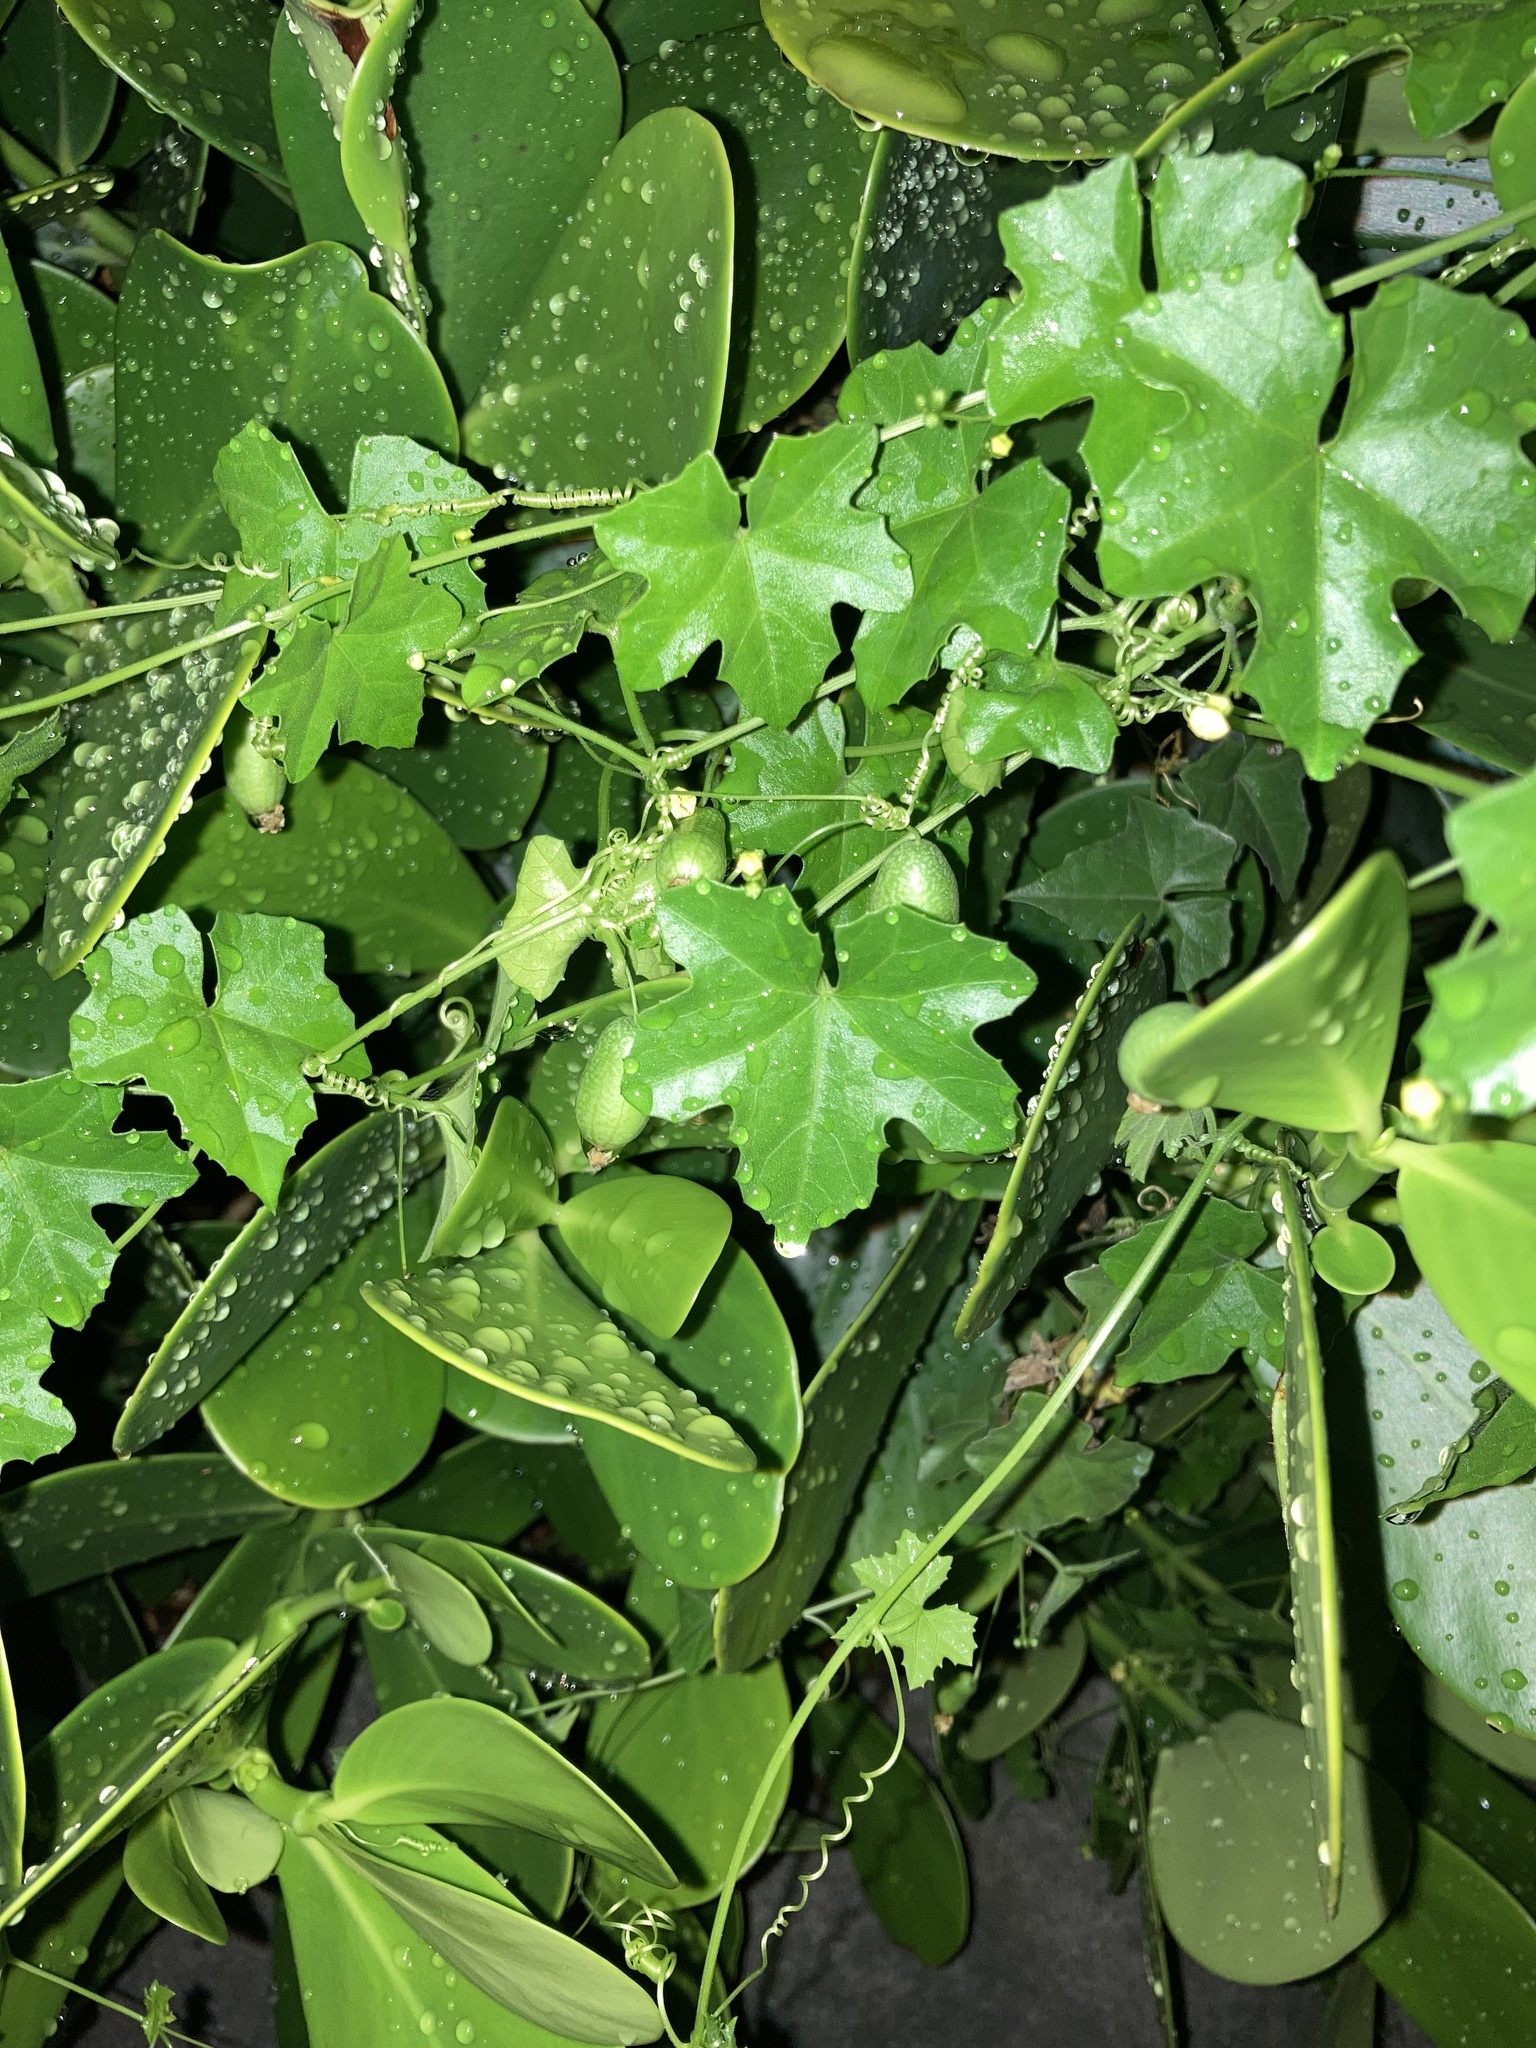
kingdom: Plantae
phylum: Tracheophyta
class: Magnoliopsida
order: Cucurbitales
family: Cucurbitaceae
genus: Melothria
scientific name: Melothria pendula
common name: Creeping-cucumber
